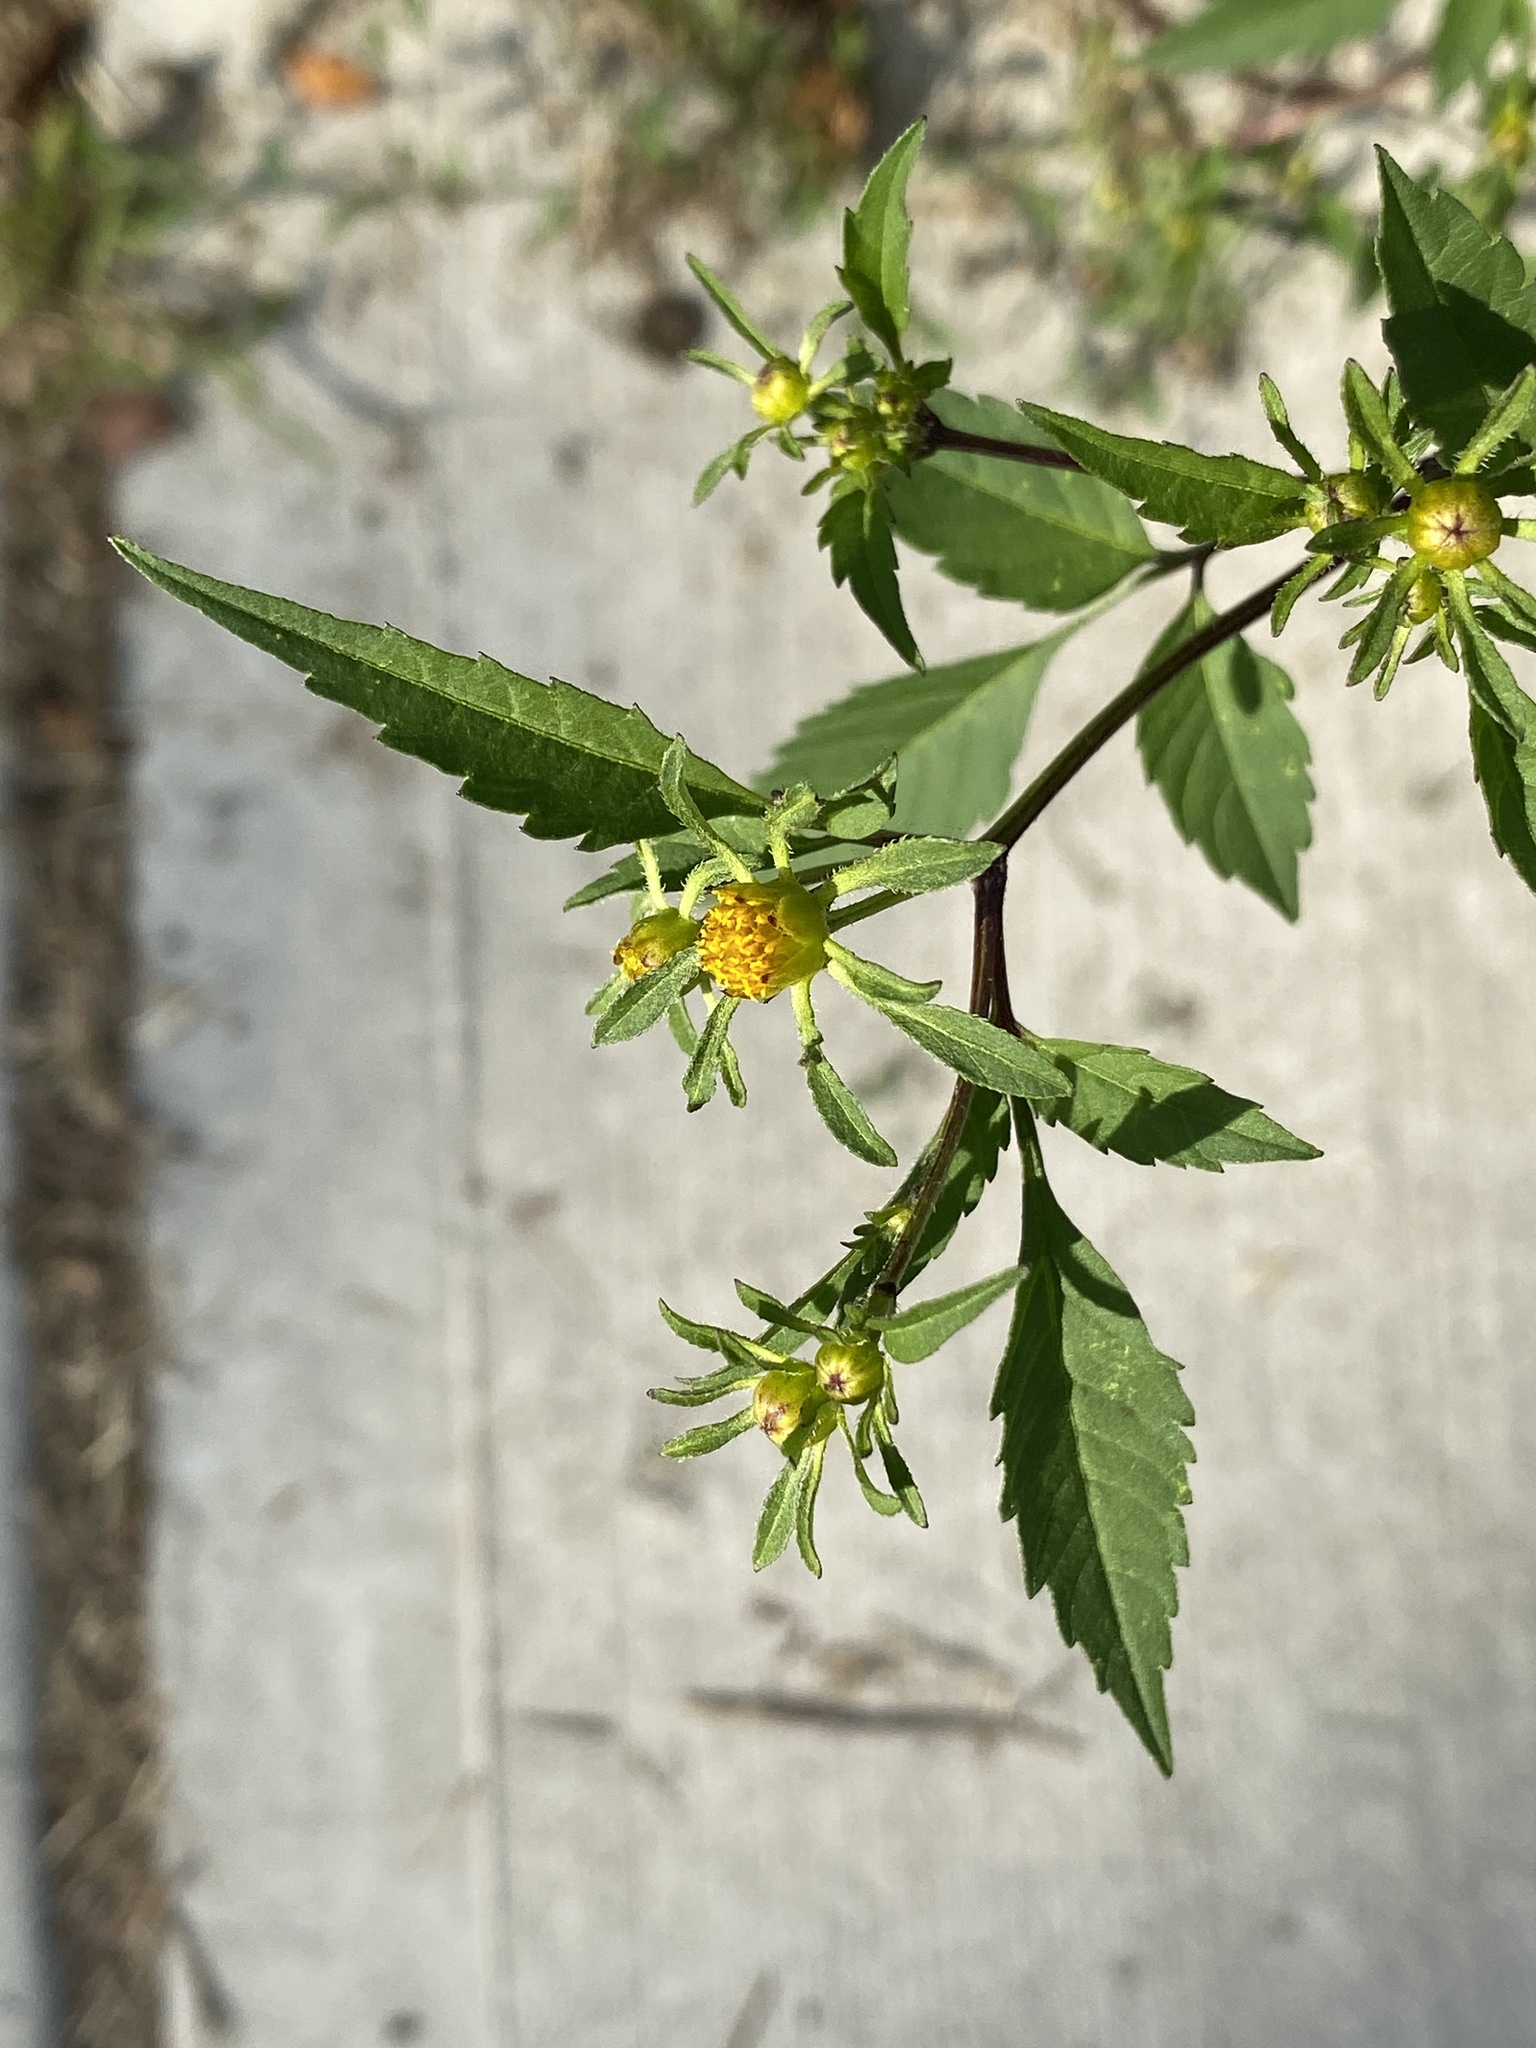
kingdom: Plantae
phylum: Tracheophyta
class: Magnoliopsida
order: Asterales
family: Asteraceae
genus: Bidens
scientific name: Bidens frondosa
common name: Beggarticks
